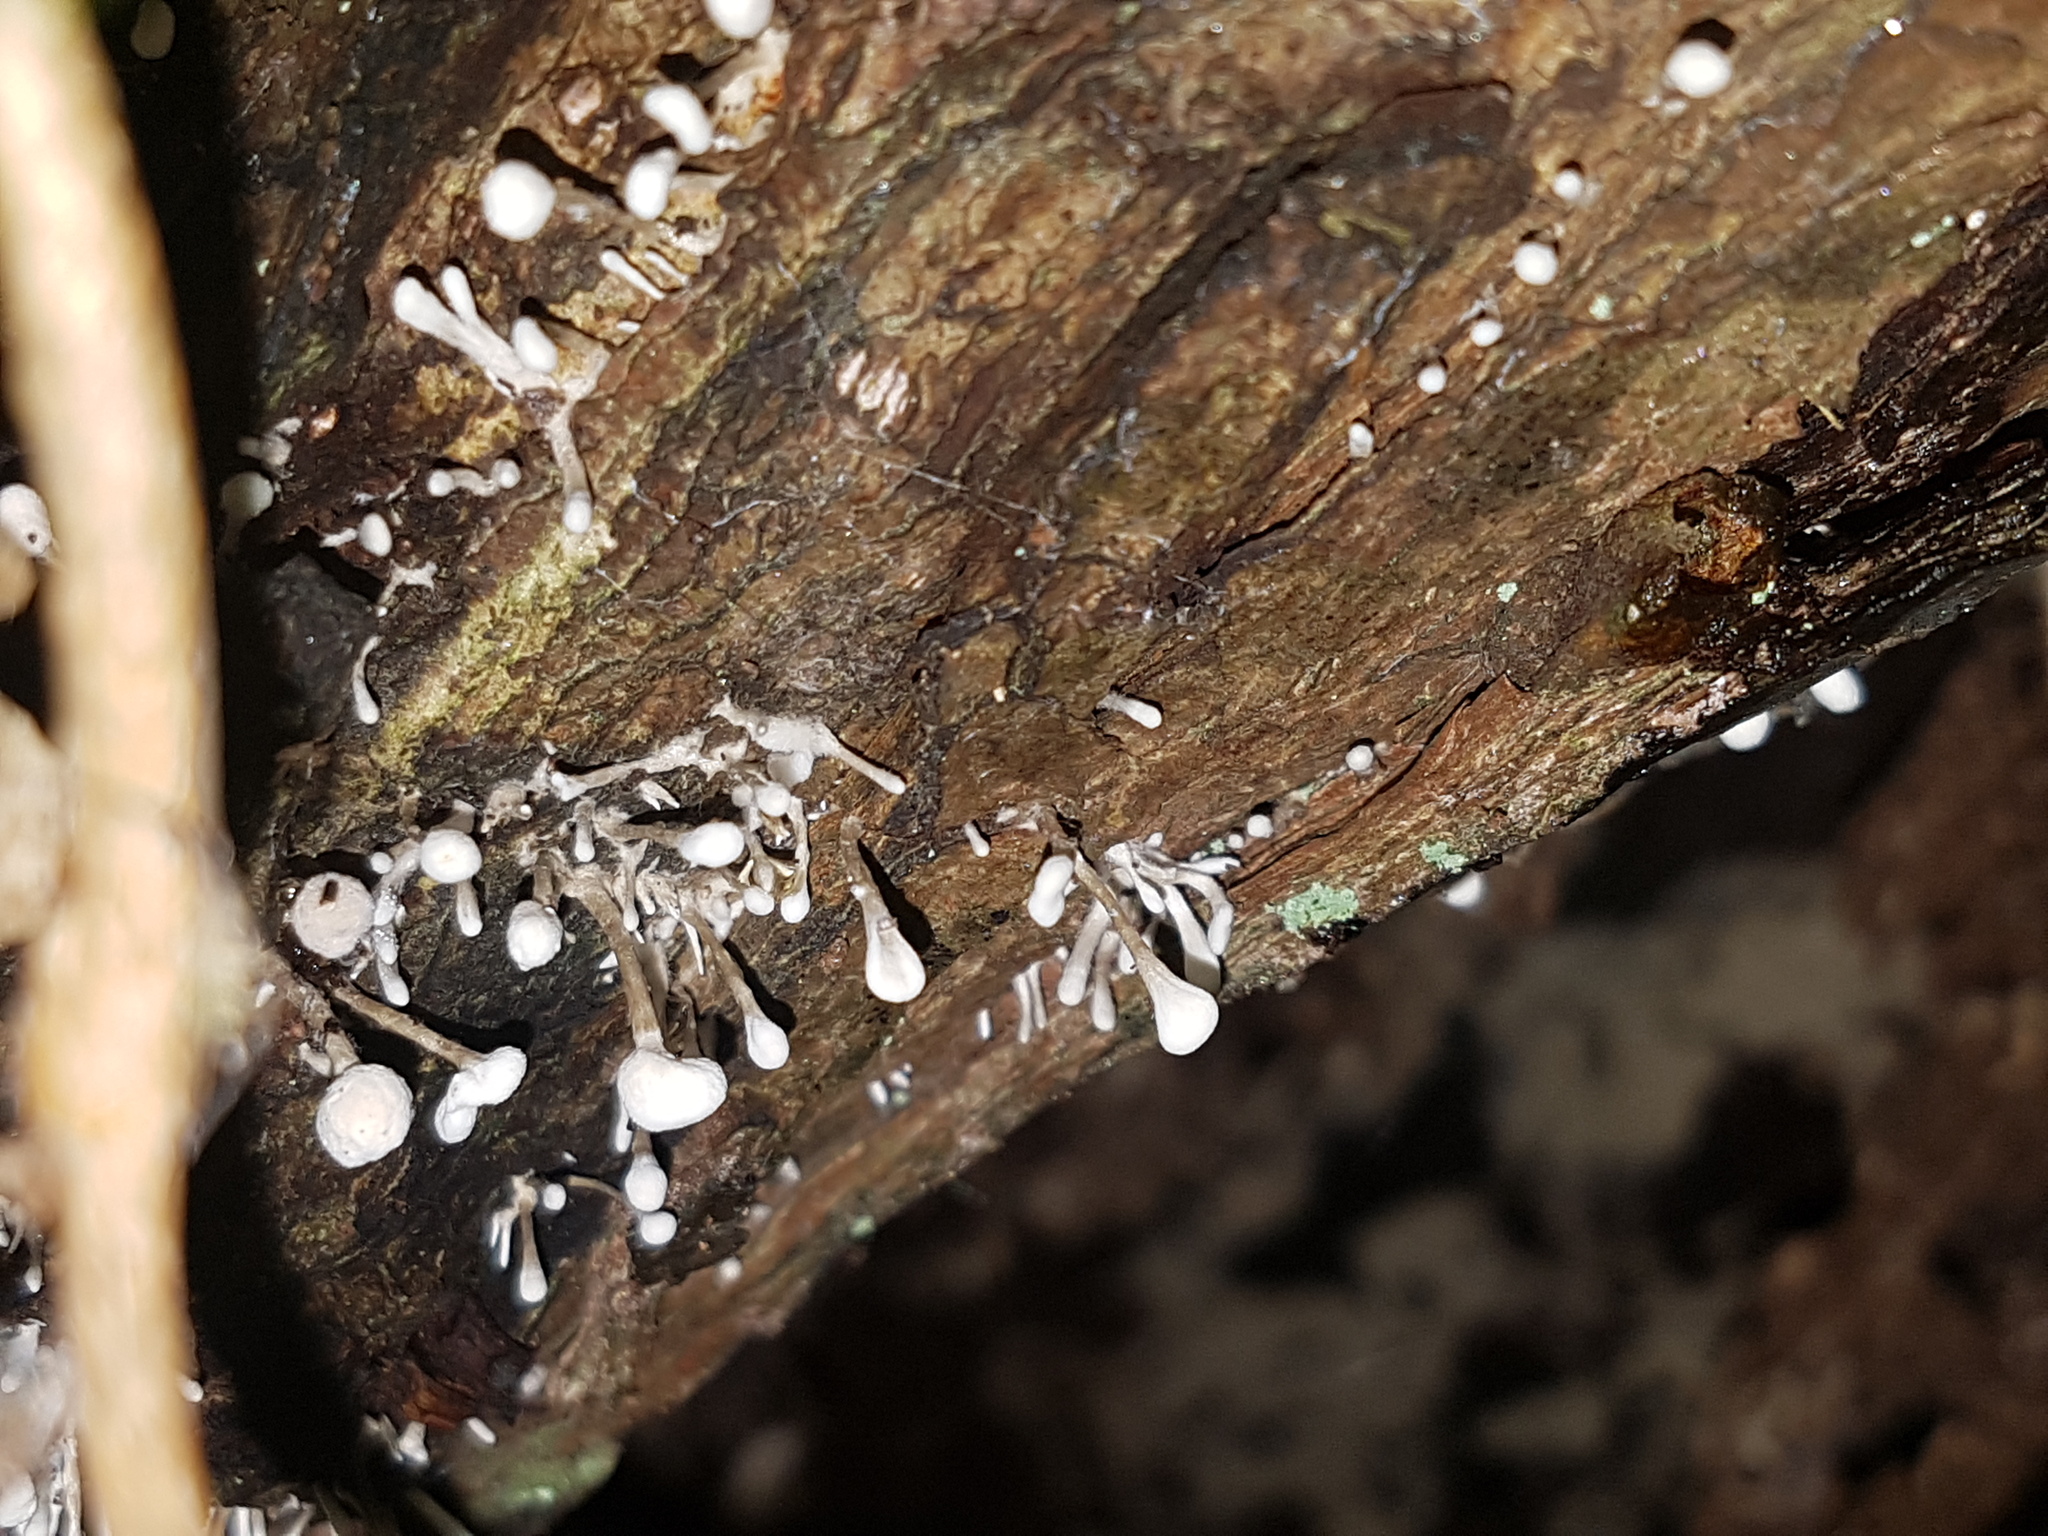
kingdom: Fungi
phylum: Basidiomycota
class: Atractiellomycetes
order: Atractiellales
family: Phleogenaceae
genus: Phleogena
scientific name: Phleogena faginea
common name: Fenugreek stalkball
